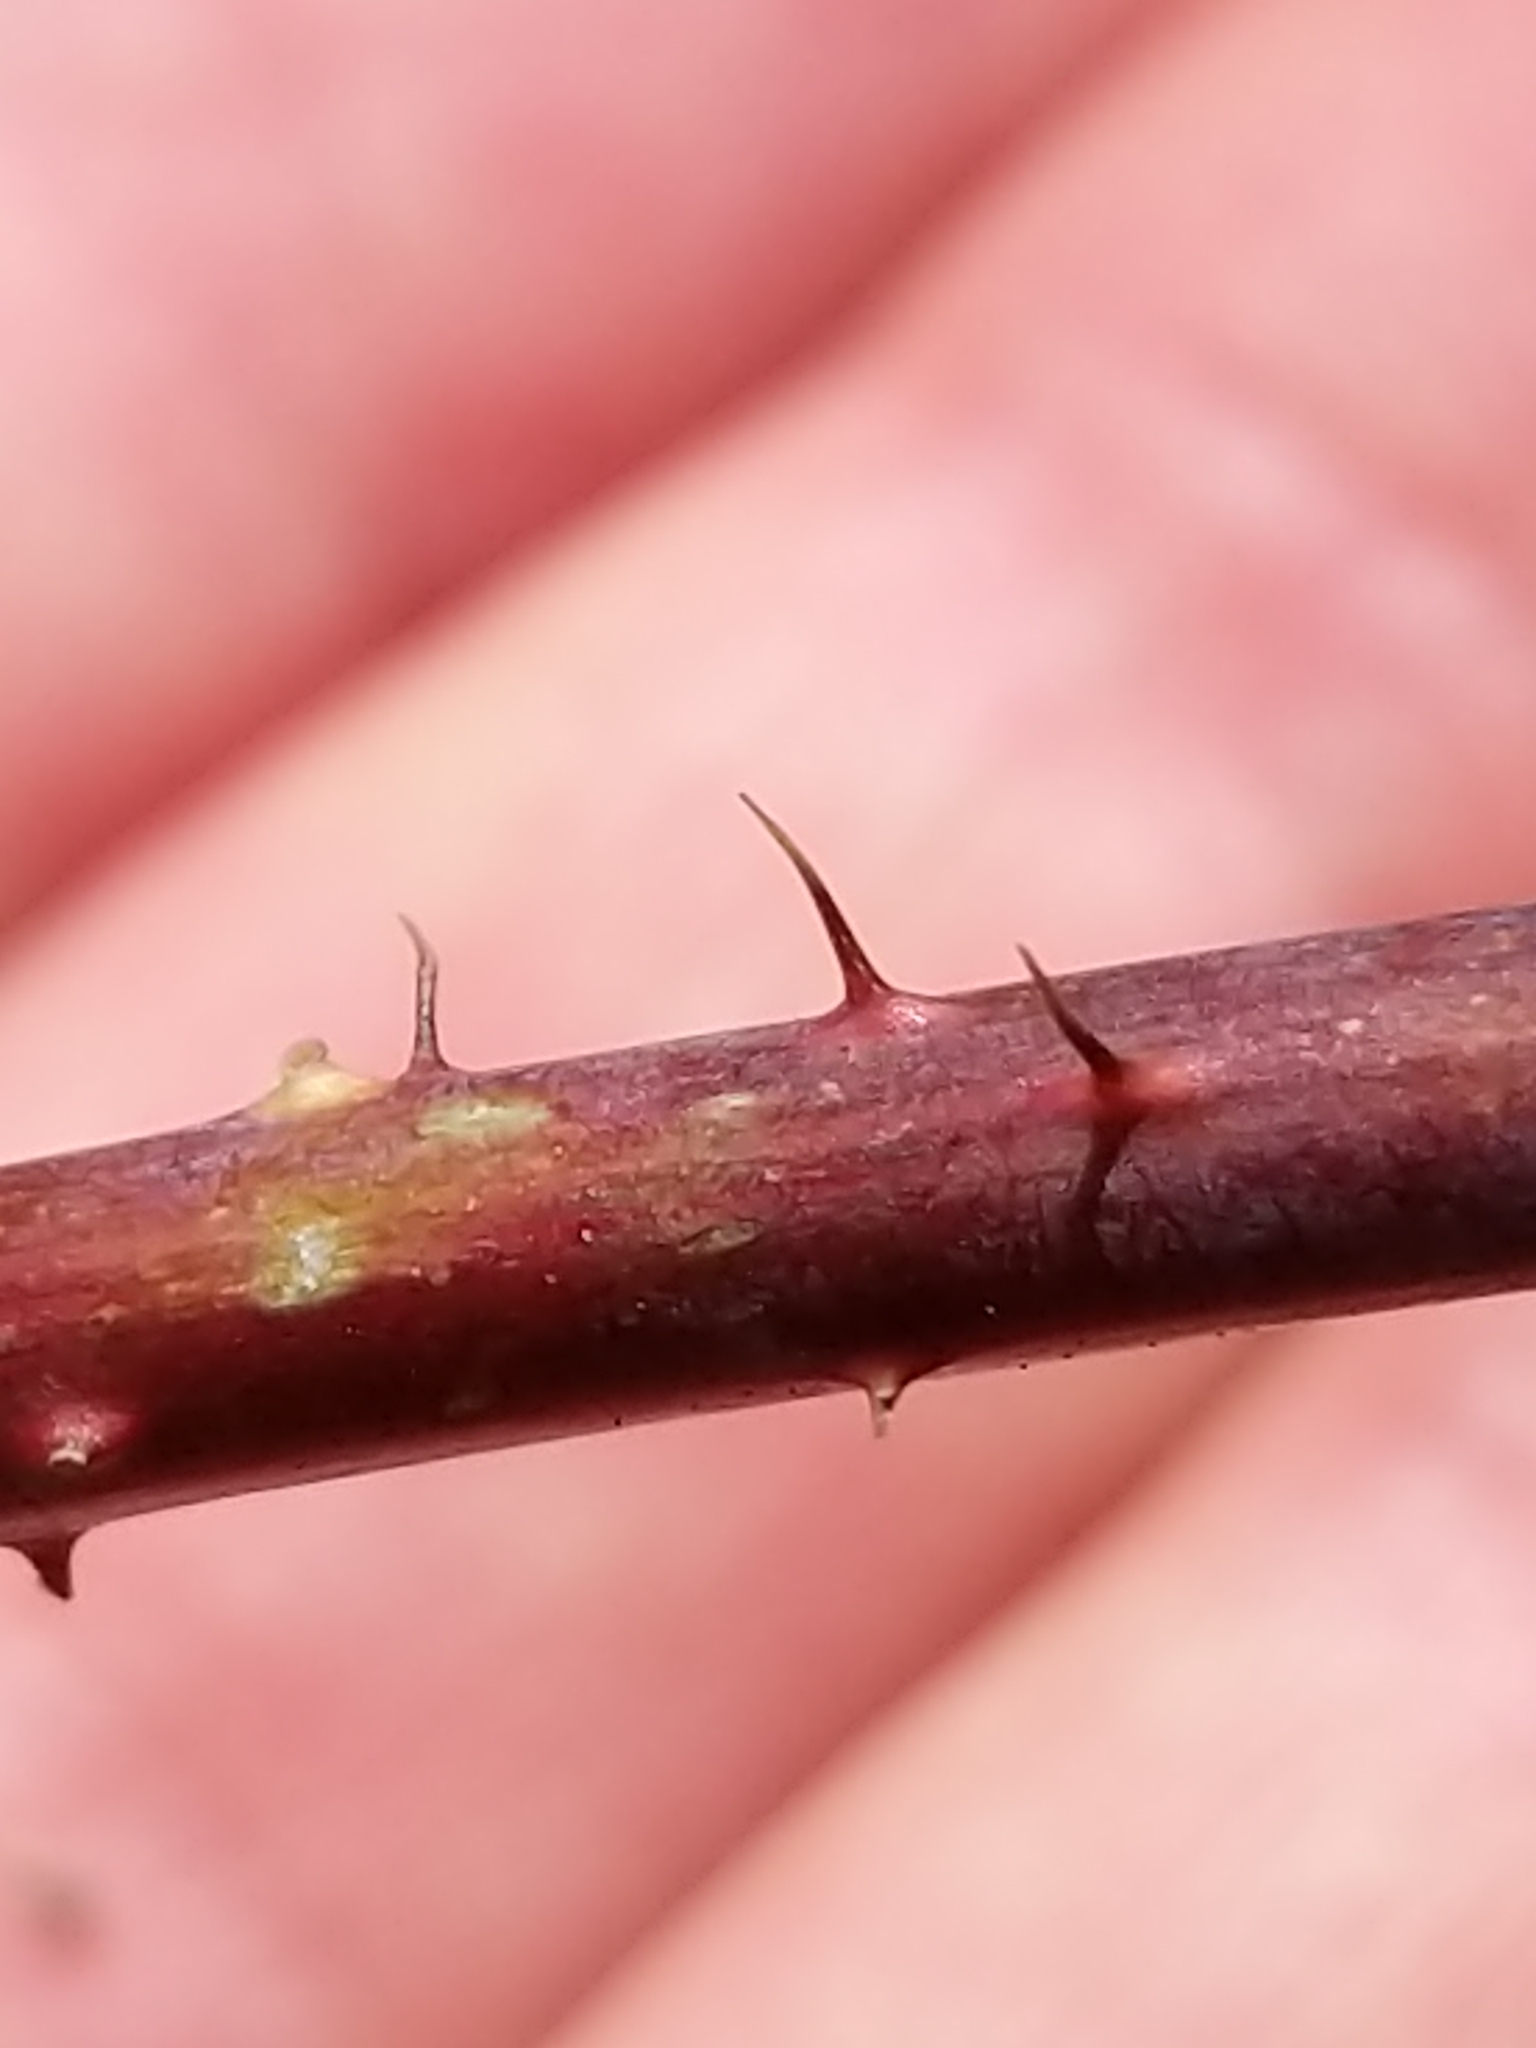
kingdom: Plantae
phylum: Tracheophyta
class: Magnoliopsida
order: Rosales
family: Rosaceae
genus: Rubus
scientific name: Rubus occidentalis
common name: Black raspberry
